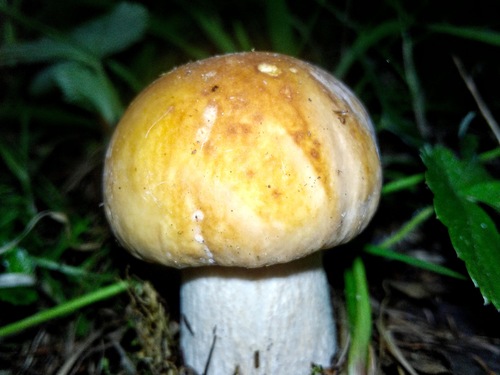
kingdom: Fungi
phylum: Basidiomycota
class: Agaricomycetes
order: Boletales
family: Boletaceae
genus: Boletus
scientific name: Boletus edulis
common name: Cep
